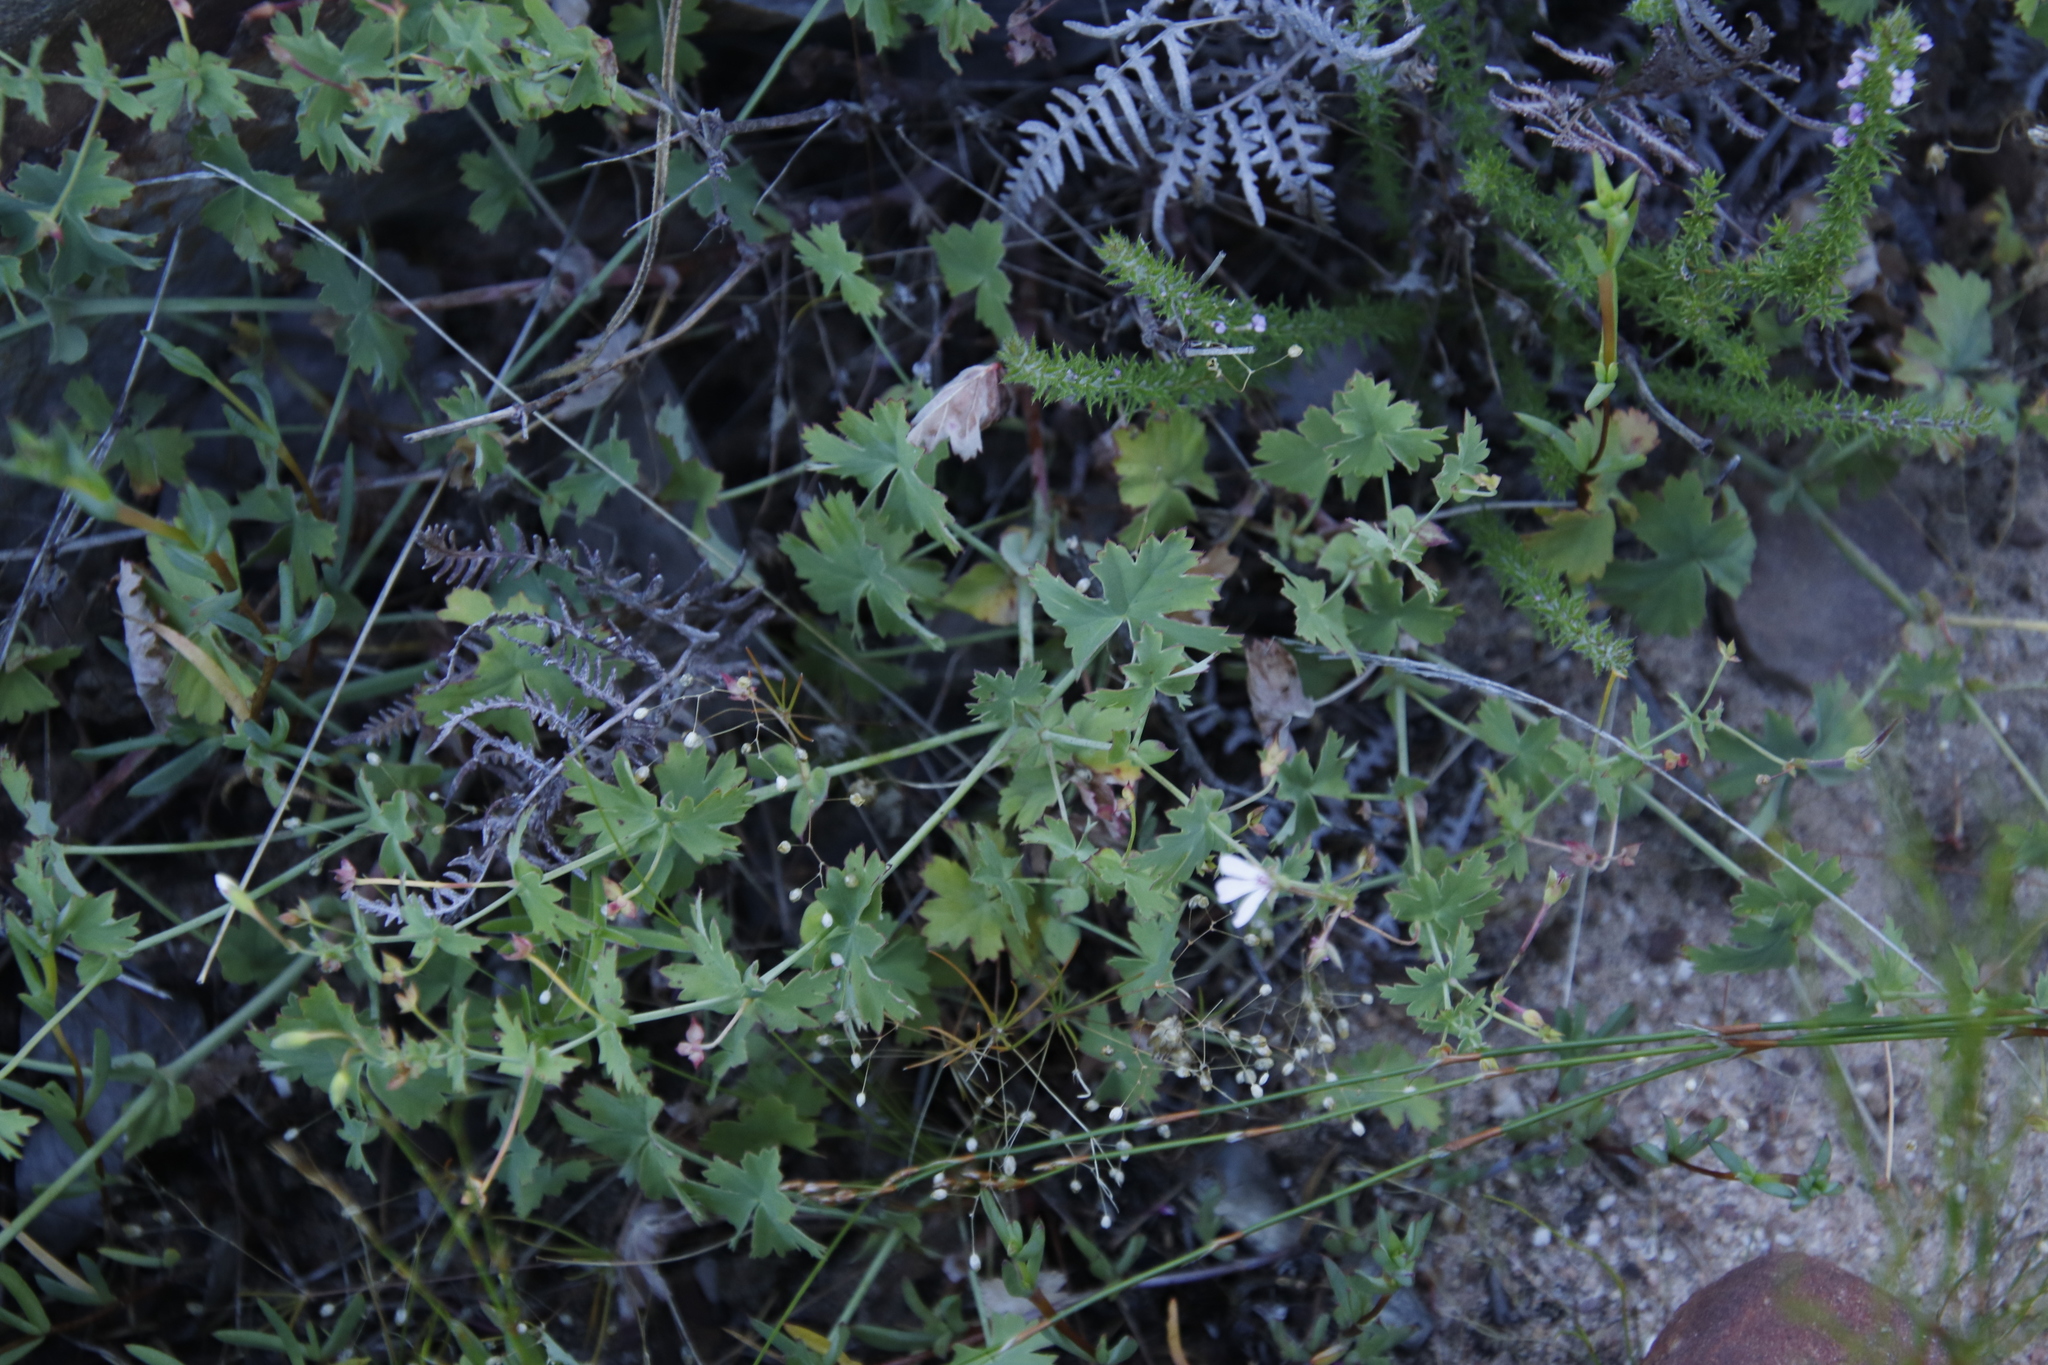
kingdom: Plantae
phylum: Tracheophyta
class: Magnoliopsida
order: Geraniales
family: Geraniaceae
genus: Pelargonium
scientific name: Pelargonium patulum
